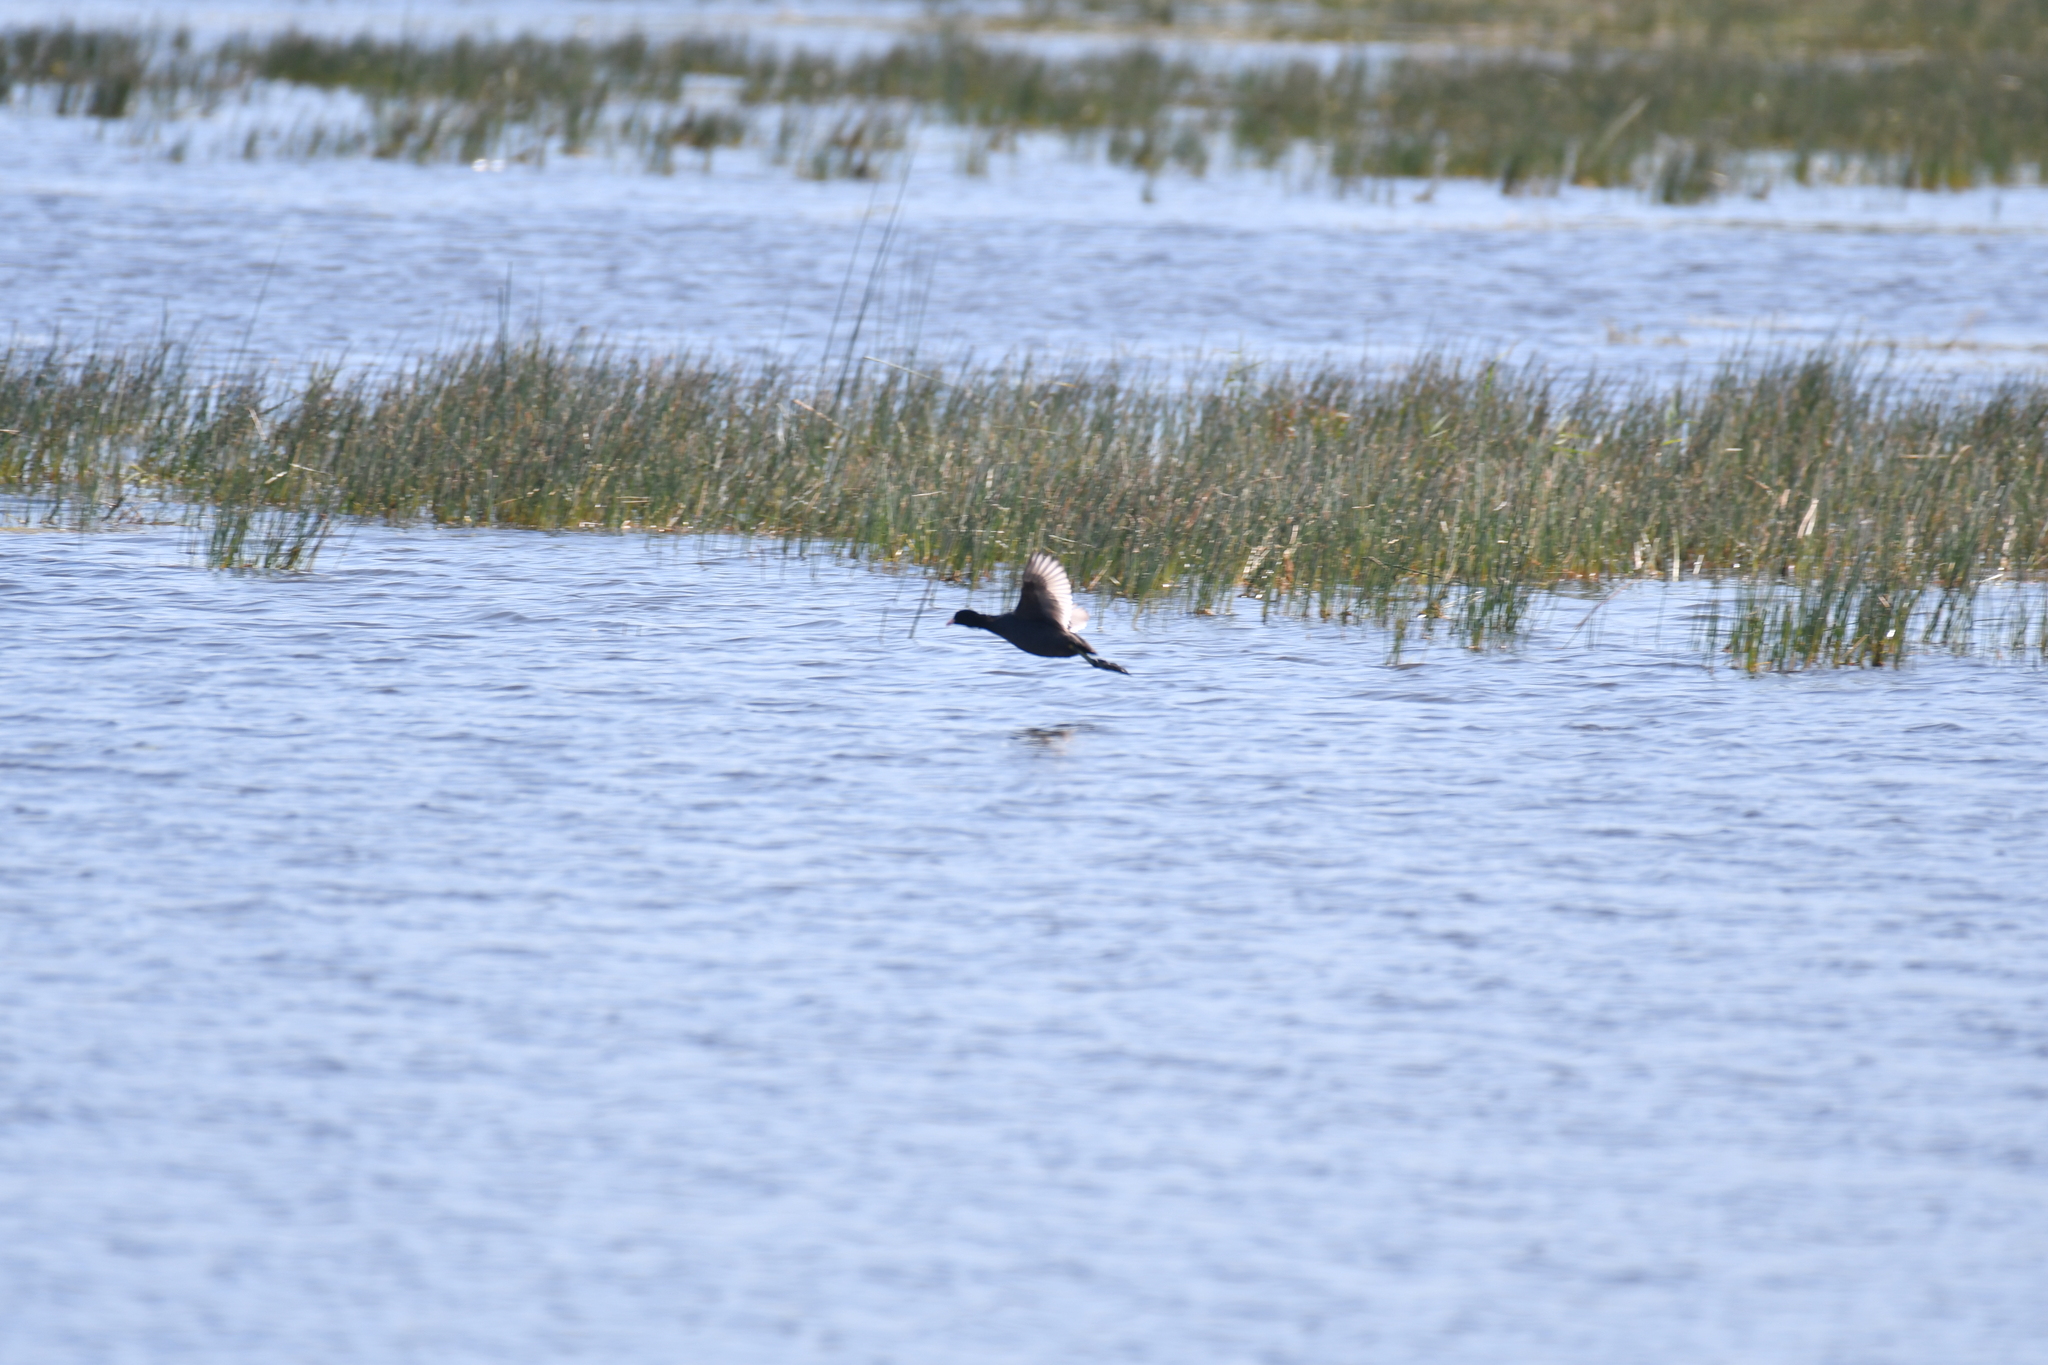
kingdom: Animalia
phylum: Chordata
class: Aves
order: Gruiformes
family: Rallidae
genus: Fulica
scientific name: Fulica atra
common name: Eurasian coot
